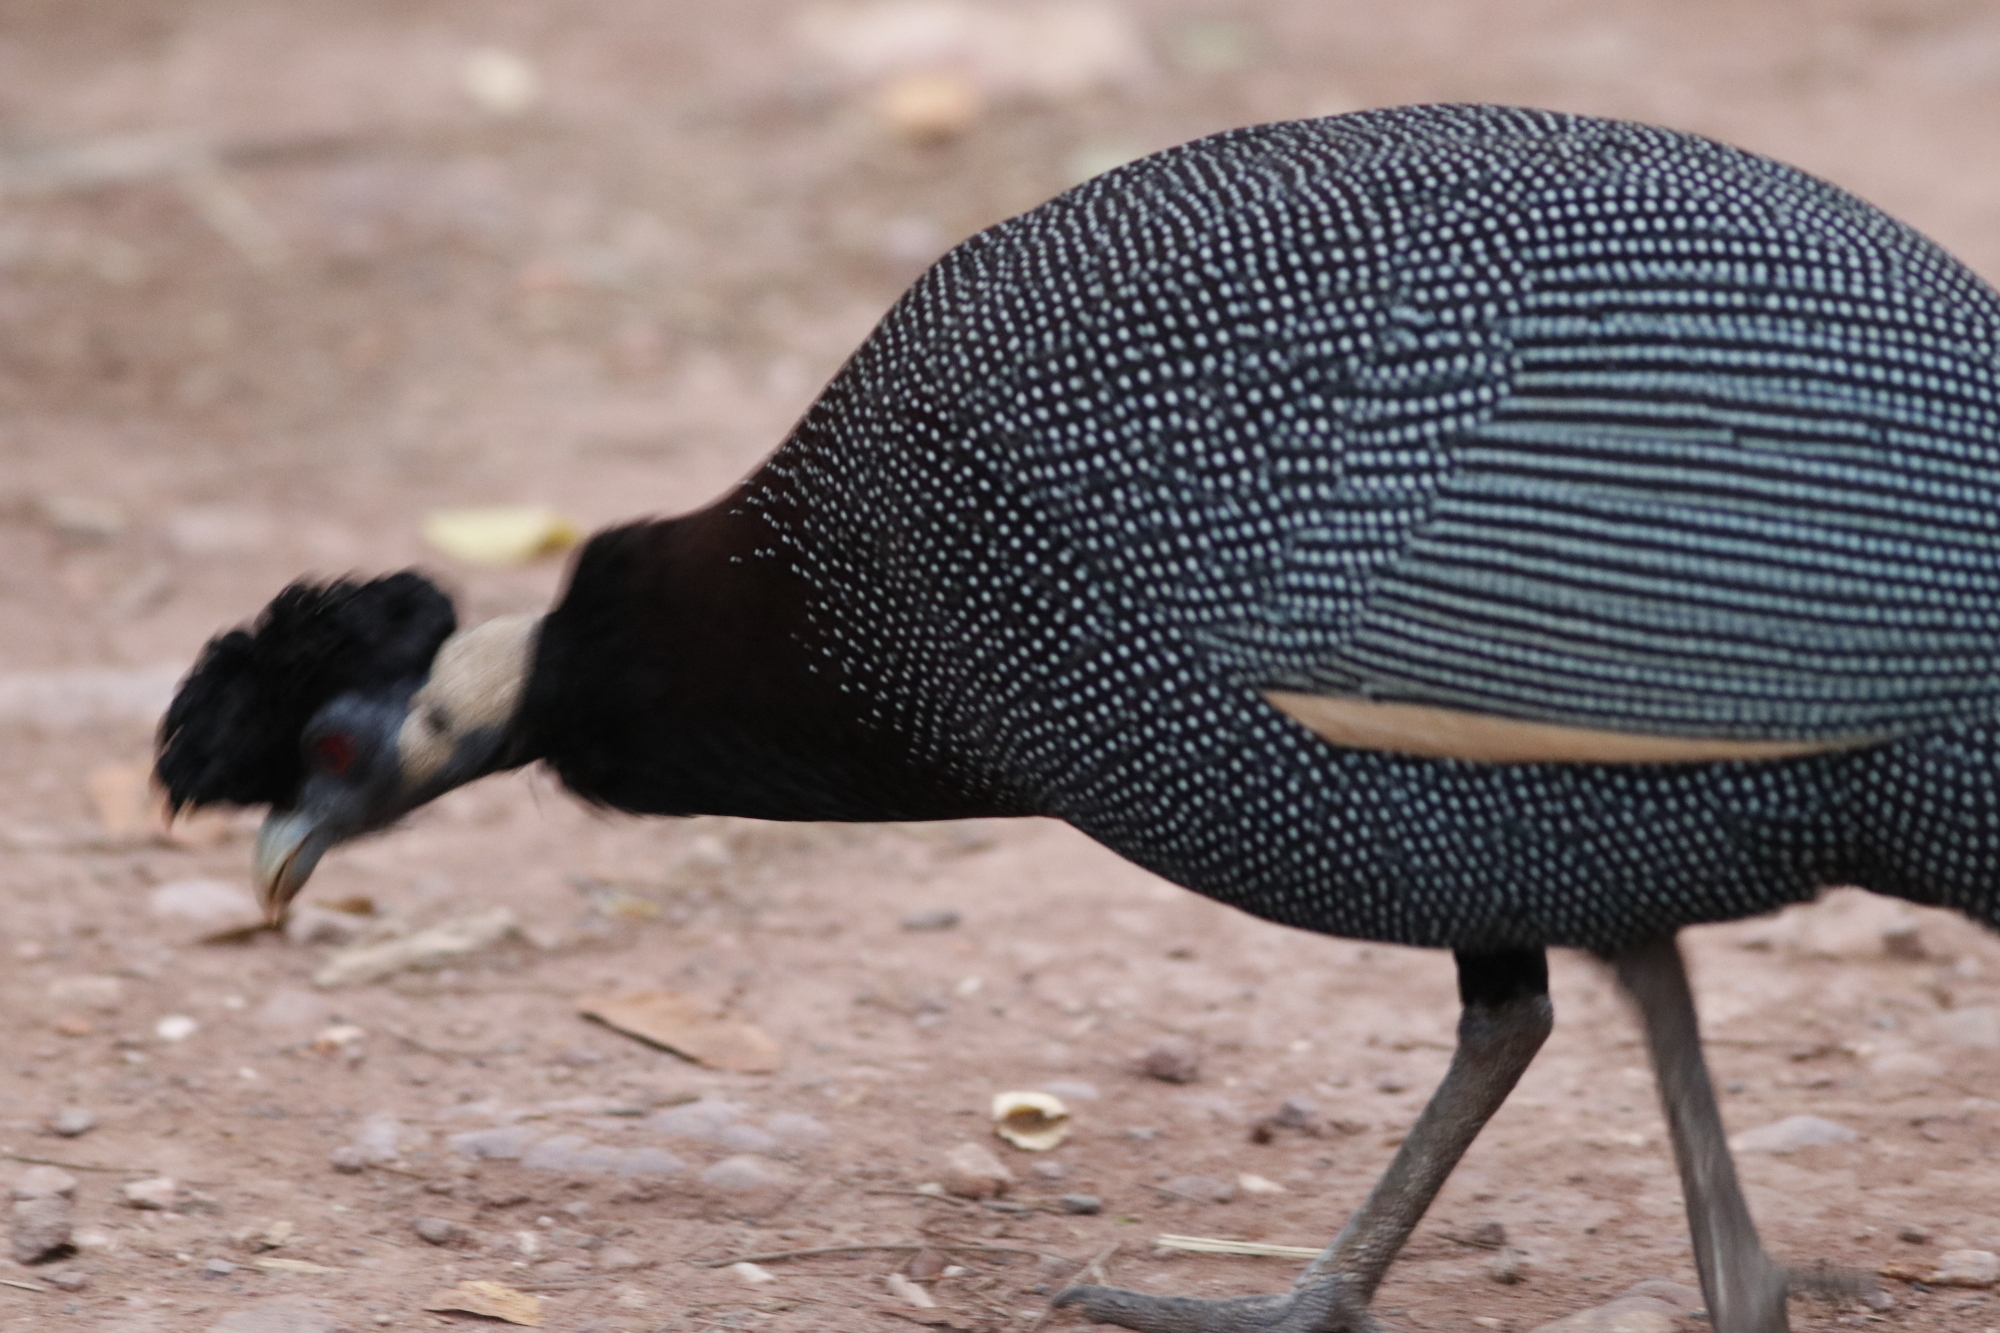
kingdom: Animalia
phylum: Chordata
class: Aves
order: Galliformes
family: Numididae
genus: Guttera
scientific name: Guttera pucherani
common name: Crested guineafowl
